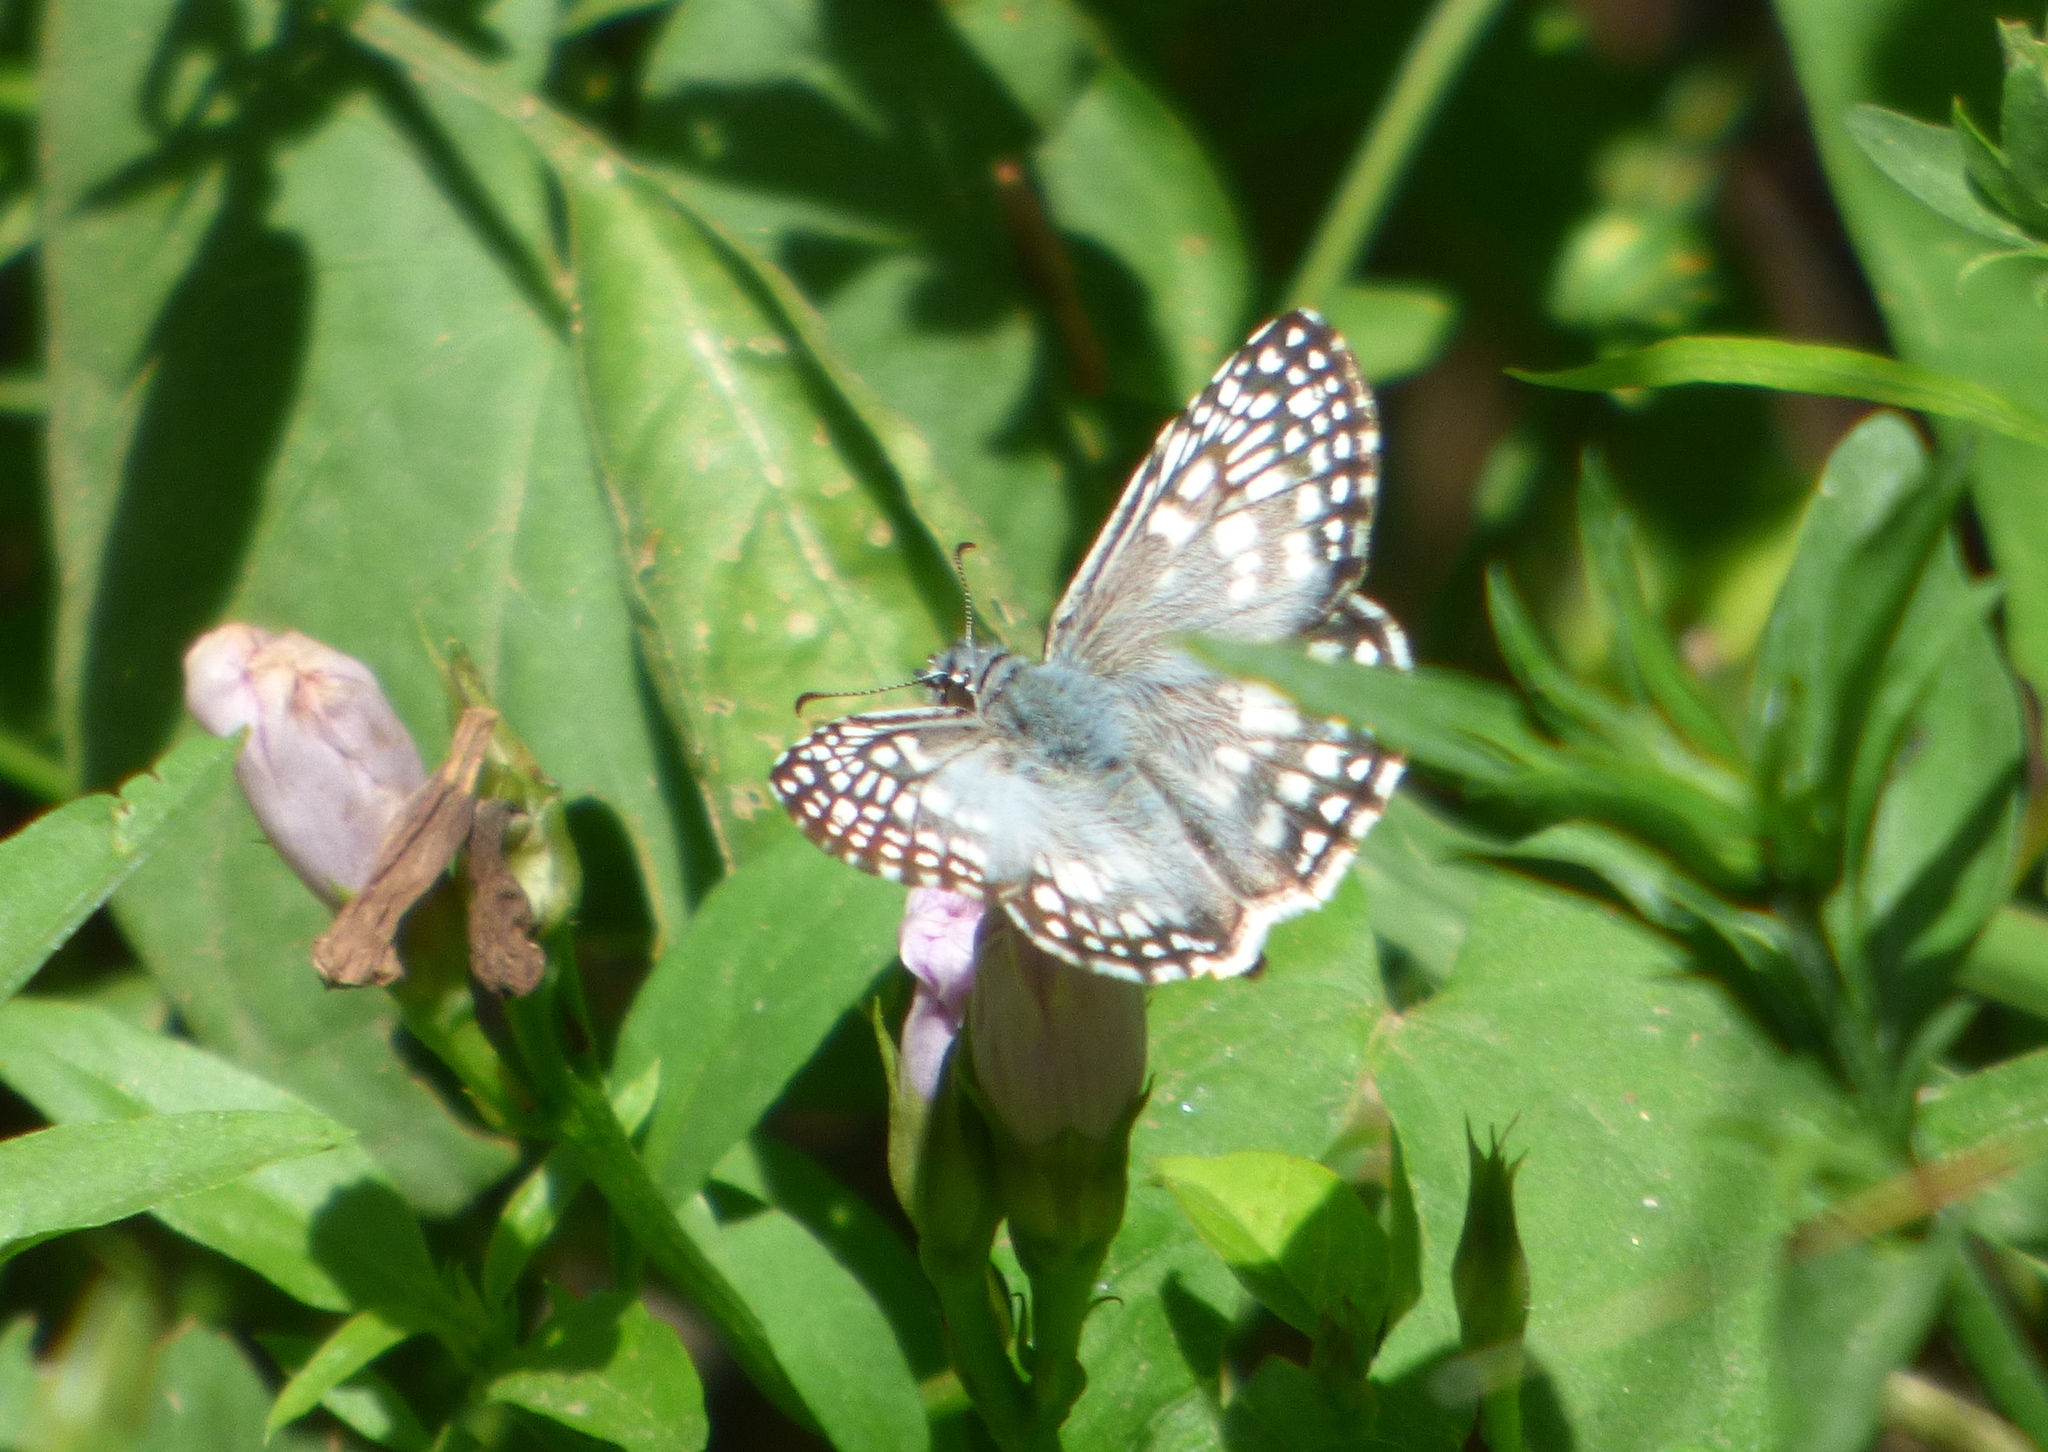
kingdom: Animalia
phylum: Arthropoda
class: Insecta
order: Lepidoptera
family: Hesperiidae
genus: Pyrgus
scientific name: Pyrgus oileus
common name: Tropical checkered-skipper
